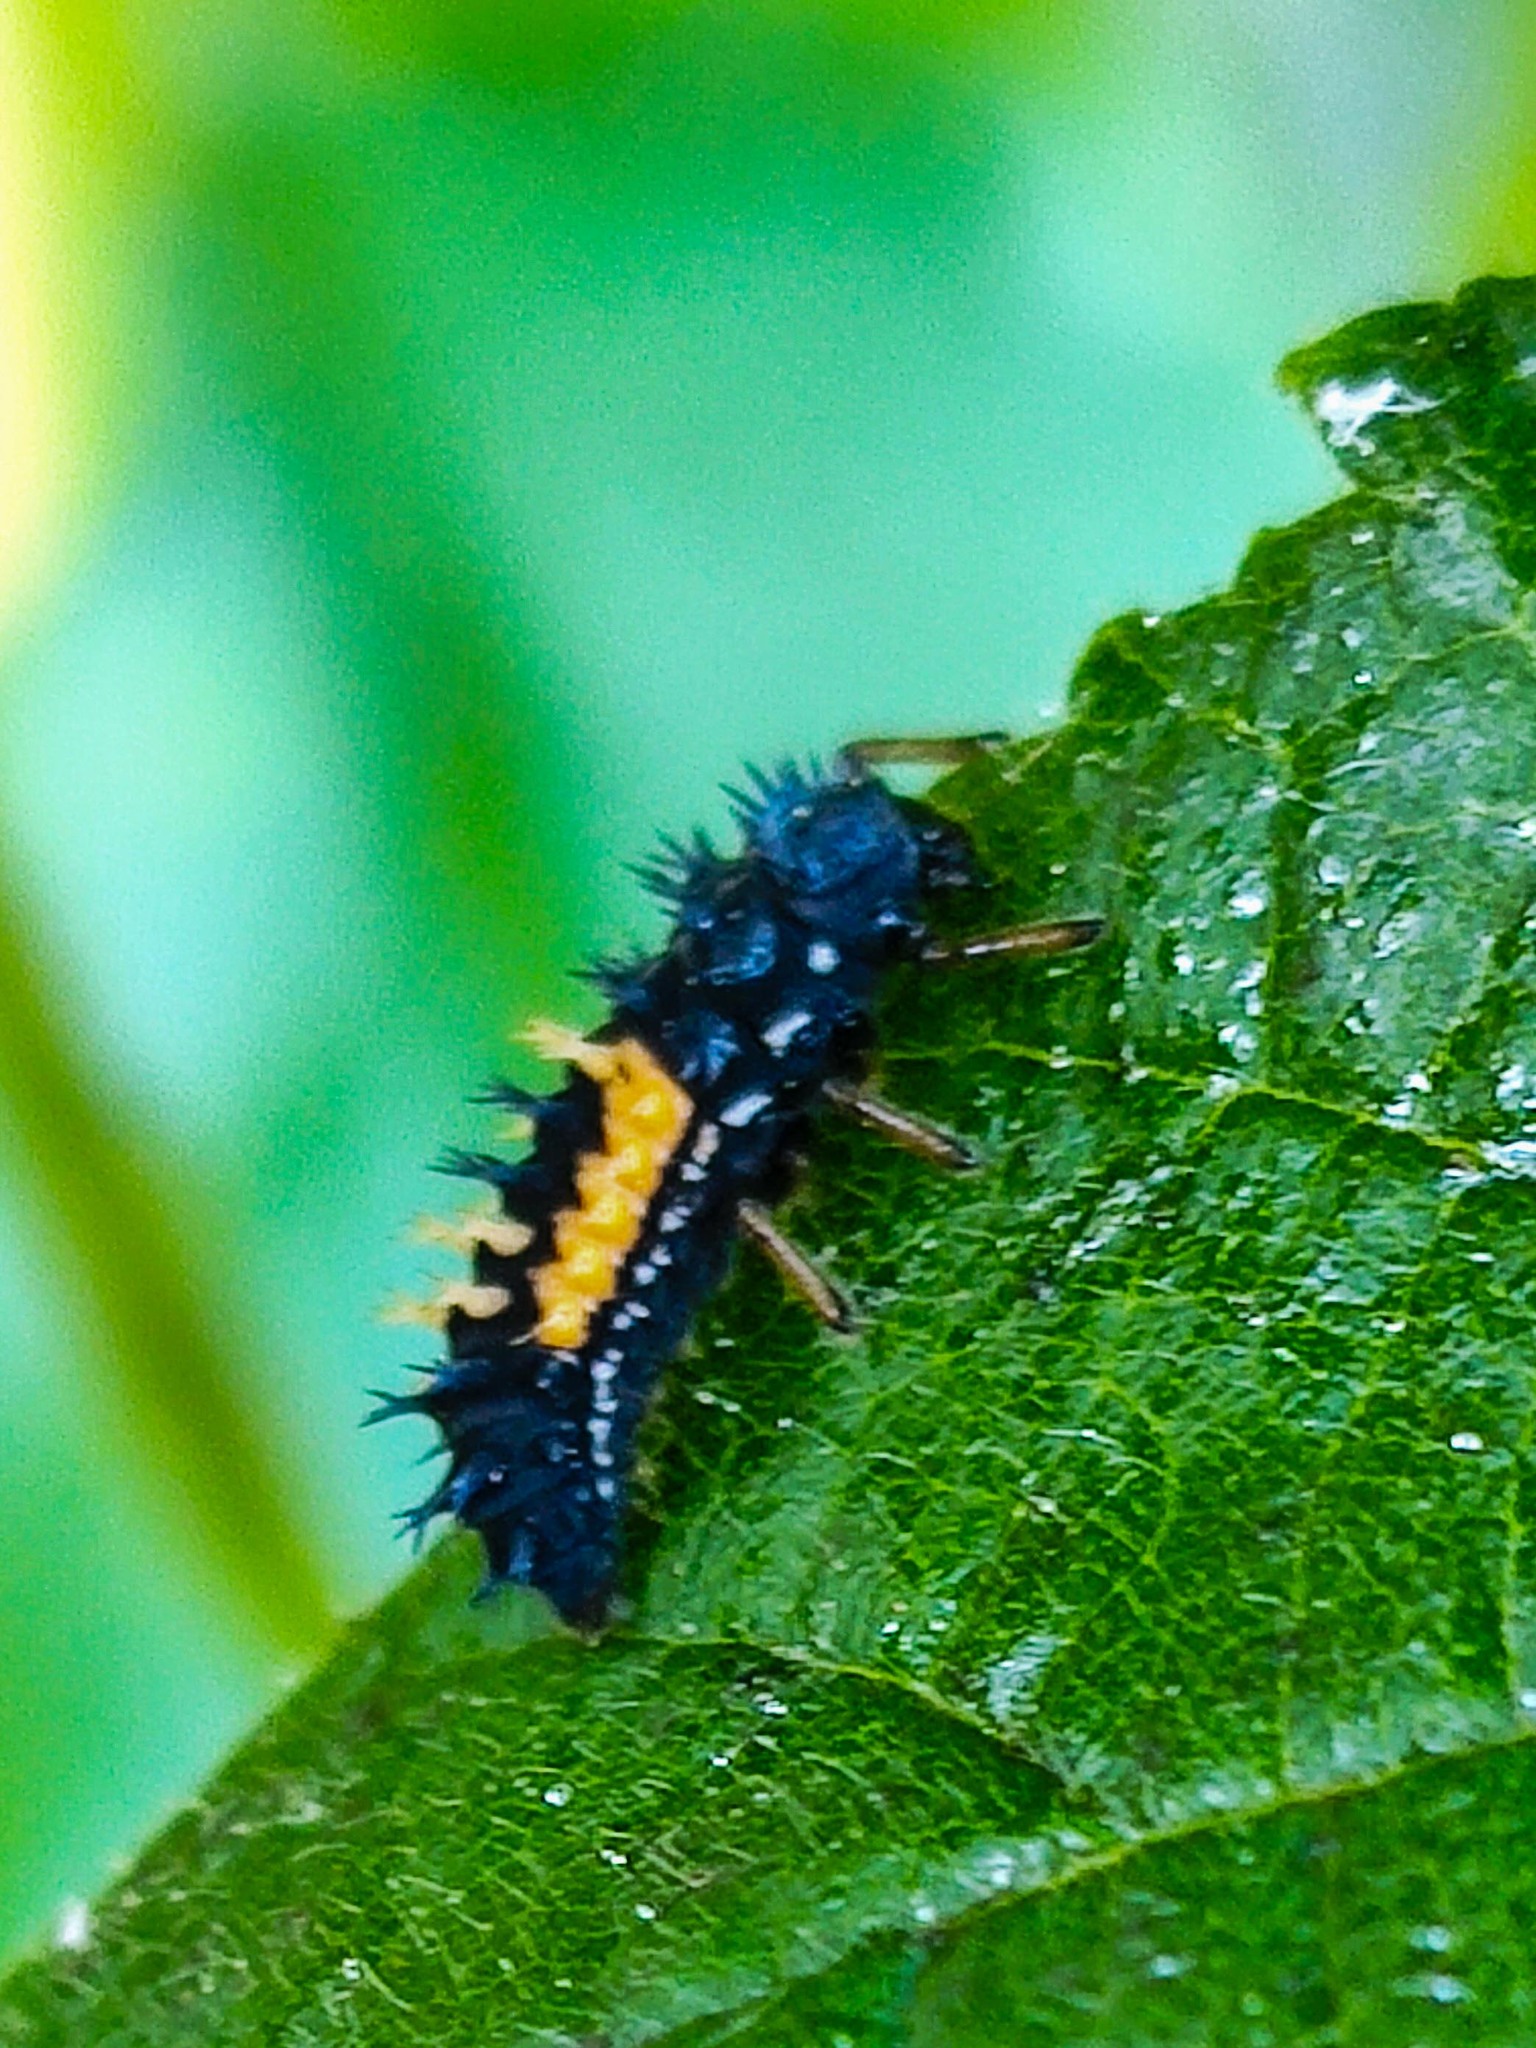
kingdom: Animalia
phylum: Arthropoda
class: Insecta
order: Coleoptera
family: Coccinellidae
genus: Harmonia
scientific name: Harmonia axyridis
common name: Harlequin ladybird
